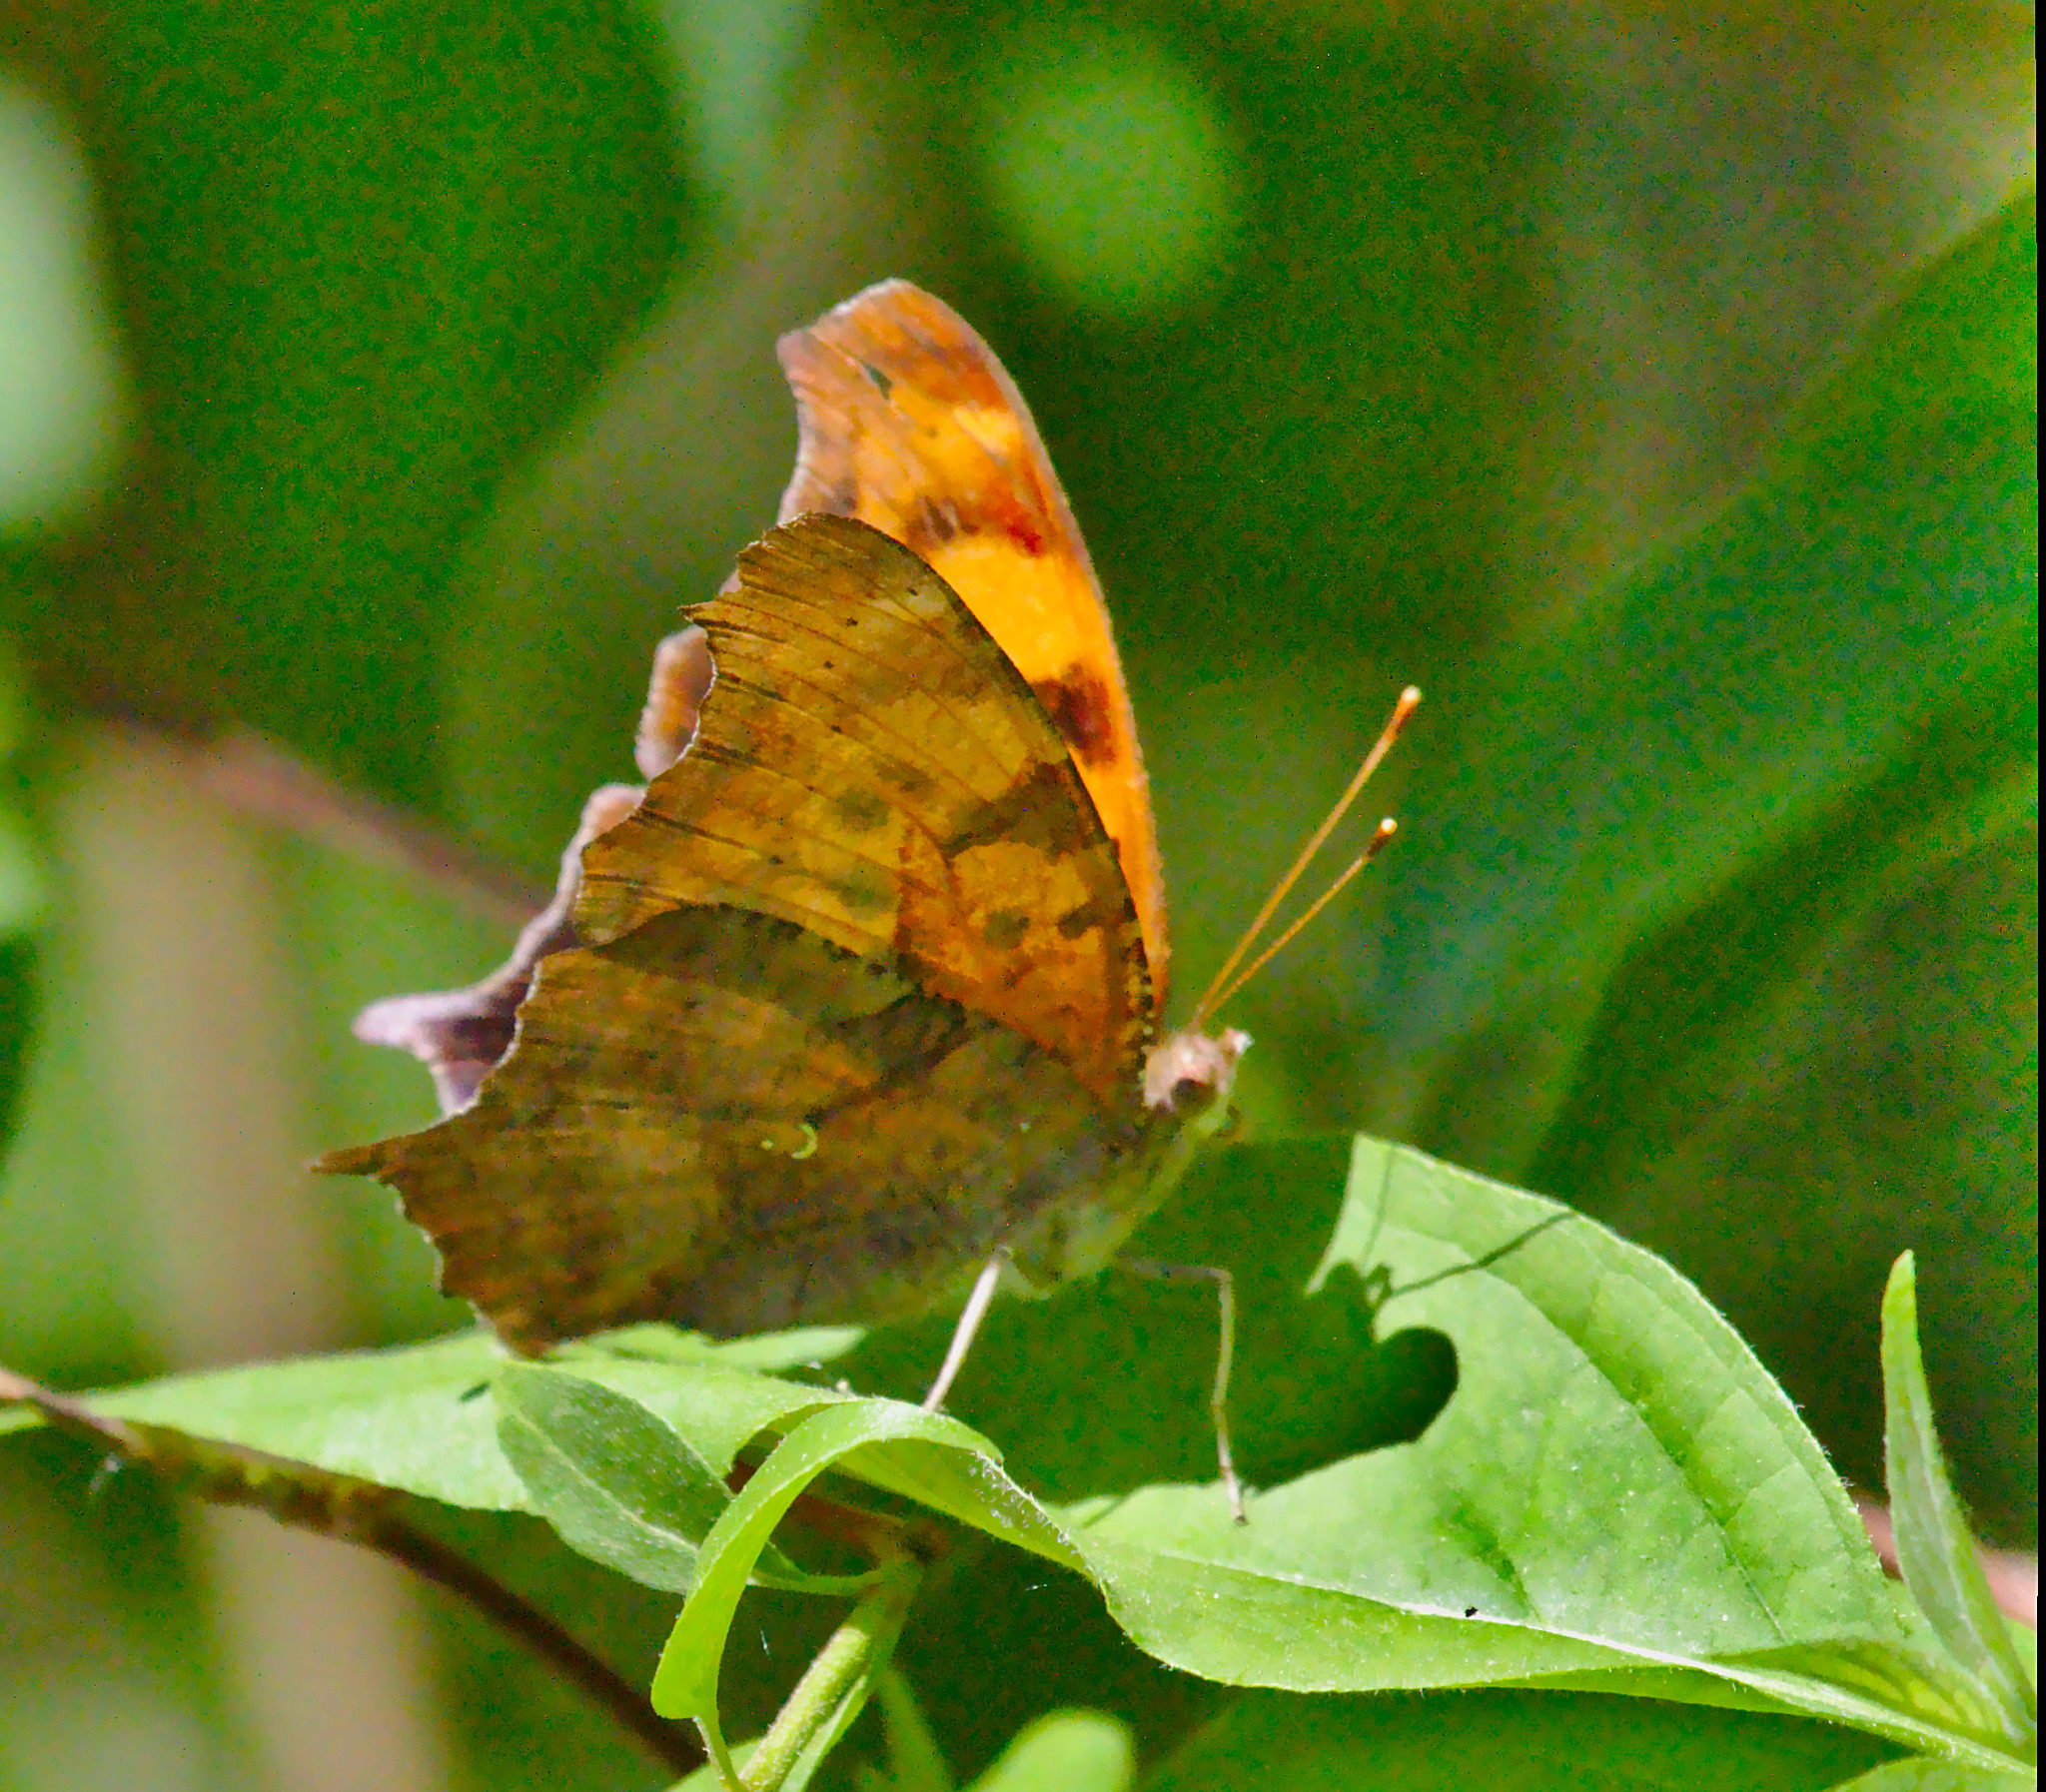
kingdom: Animalia
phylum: Arthropoda
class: Insecta
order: Lepidoptera
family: Nymphalidae
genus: Polygonia
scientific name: Polygonia interrogationis
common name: Question mark
